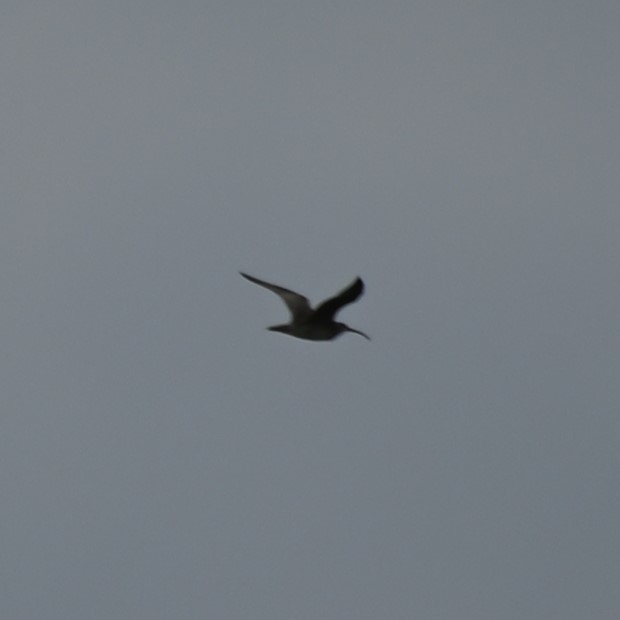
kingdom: Animalia
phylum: Chordata
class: Aves
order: Charadriiformes
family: Scolopacidae
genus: Numenius
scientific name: Numenius phaeopus
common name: Whimbrel
